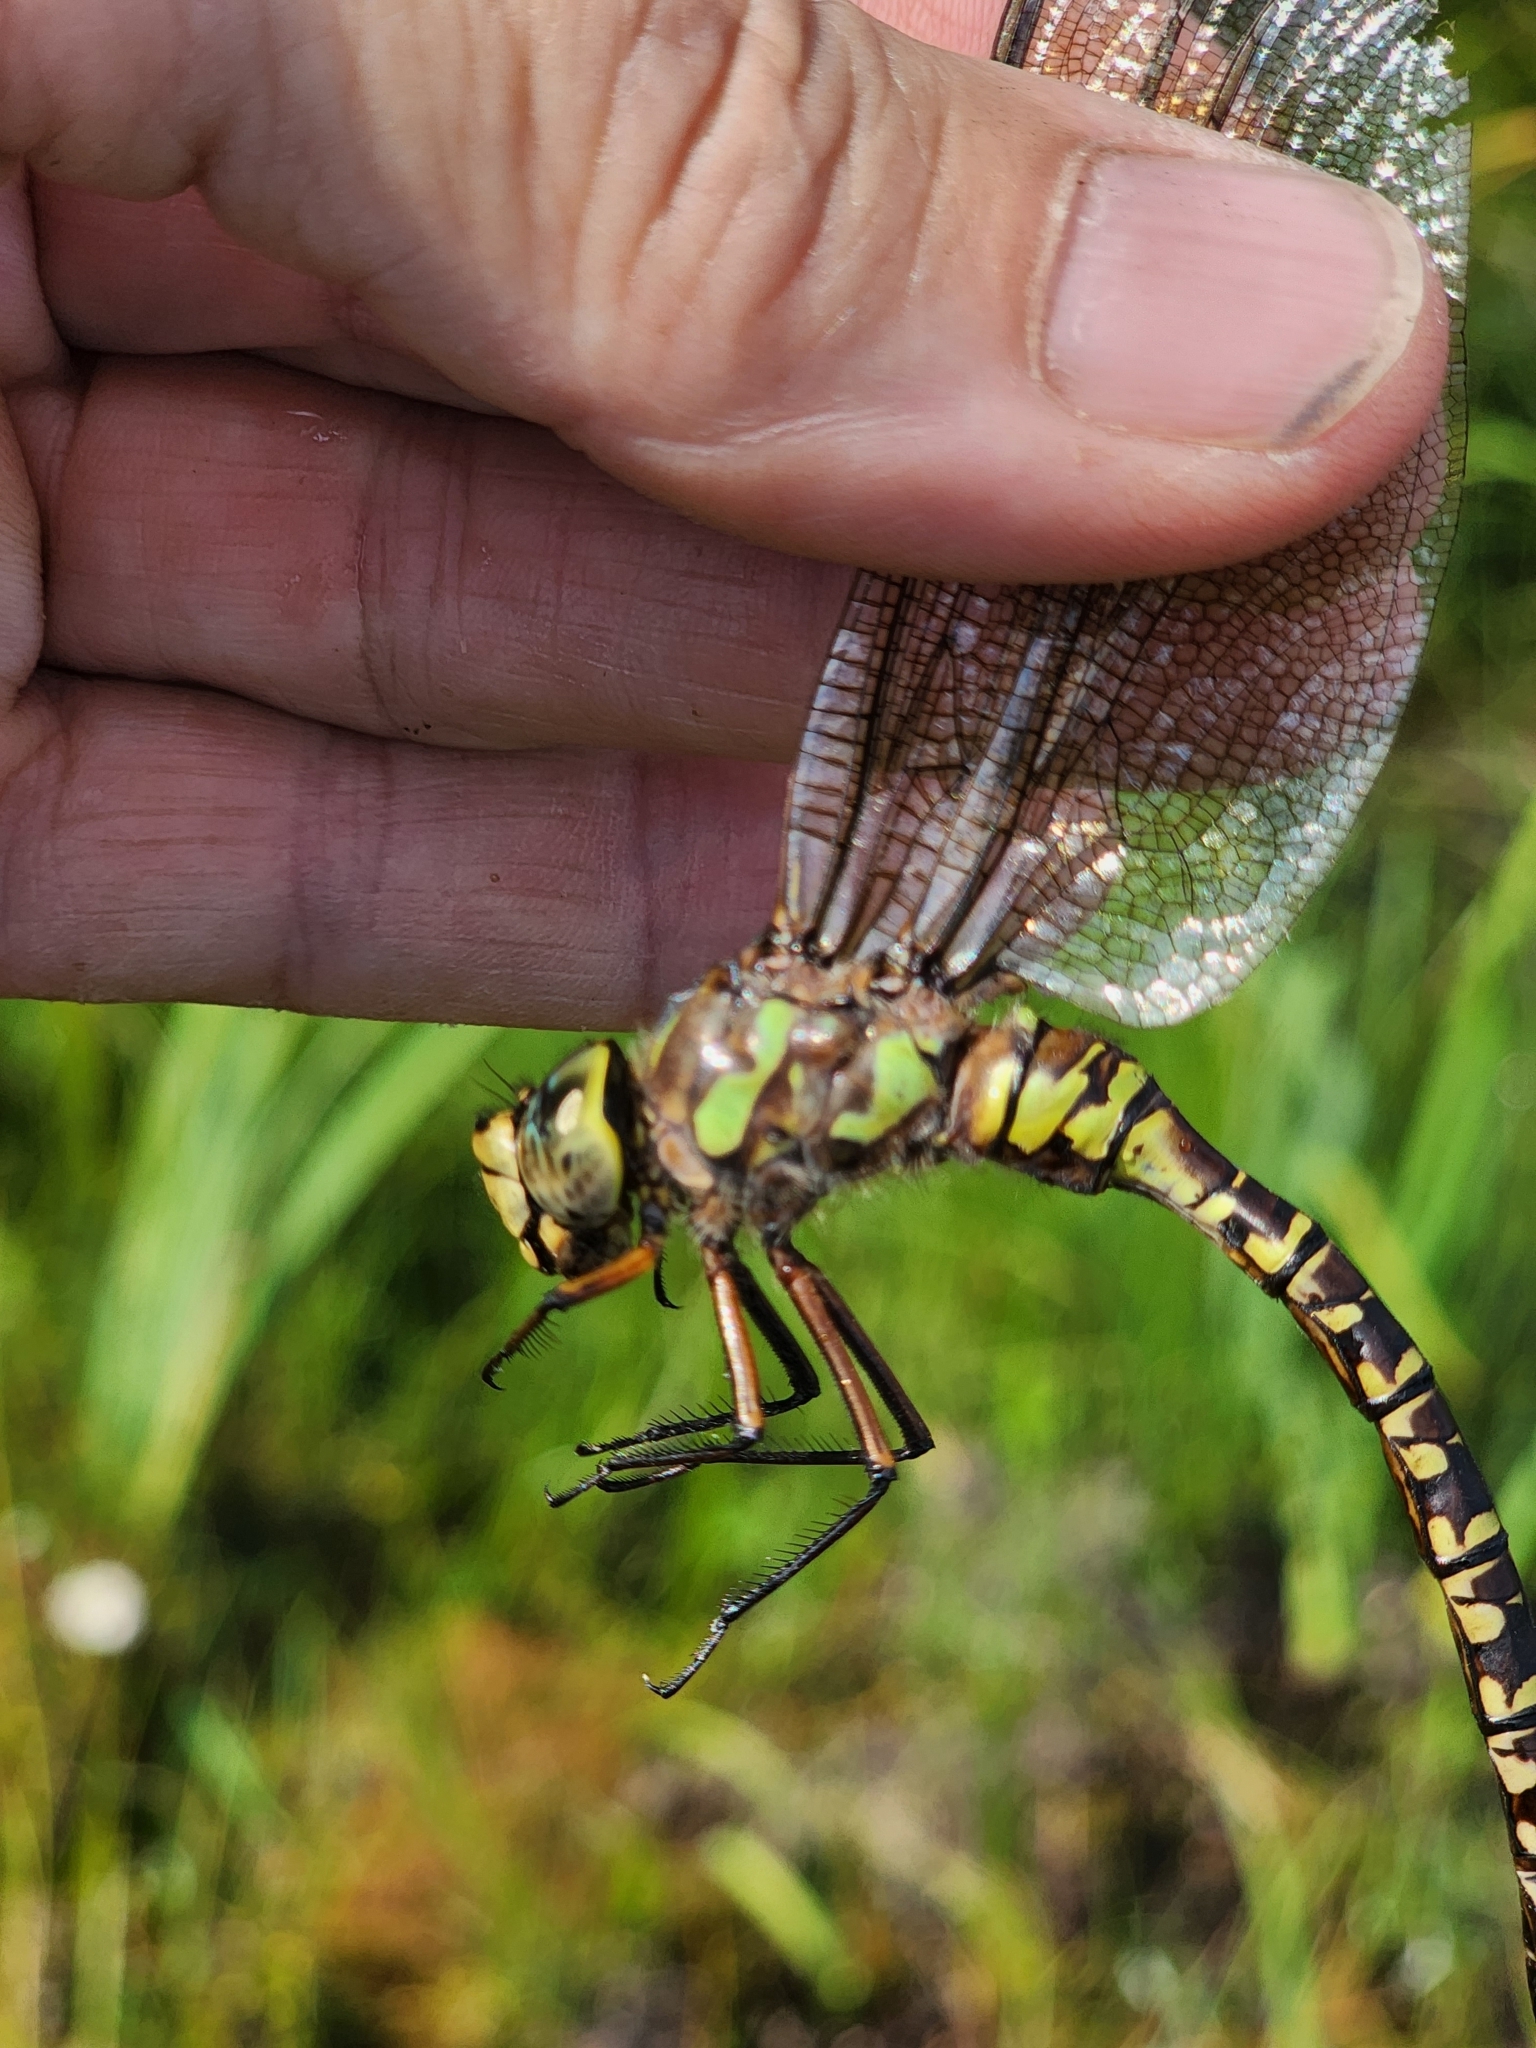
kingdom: Animalia
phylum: Arthropoda
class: Insecta
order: Odonata
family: Aeshnidae
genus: Aeshna
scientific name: Aeshna eremita
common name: Lake darner
